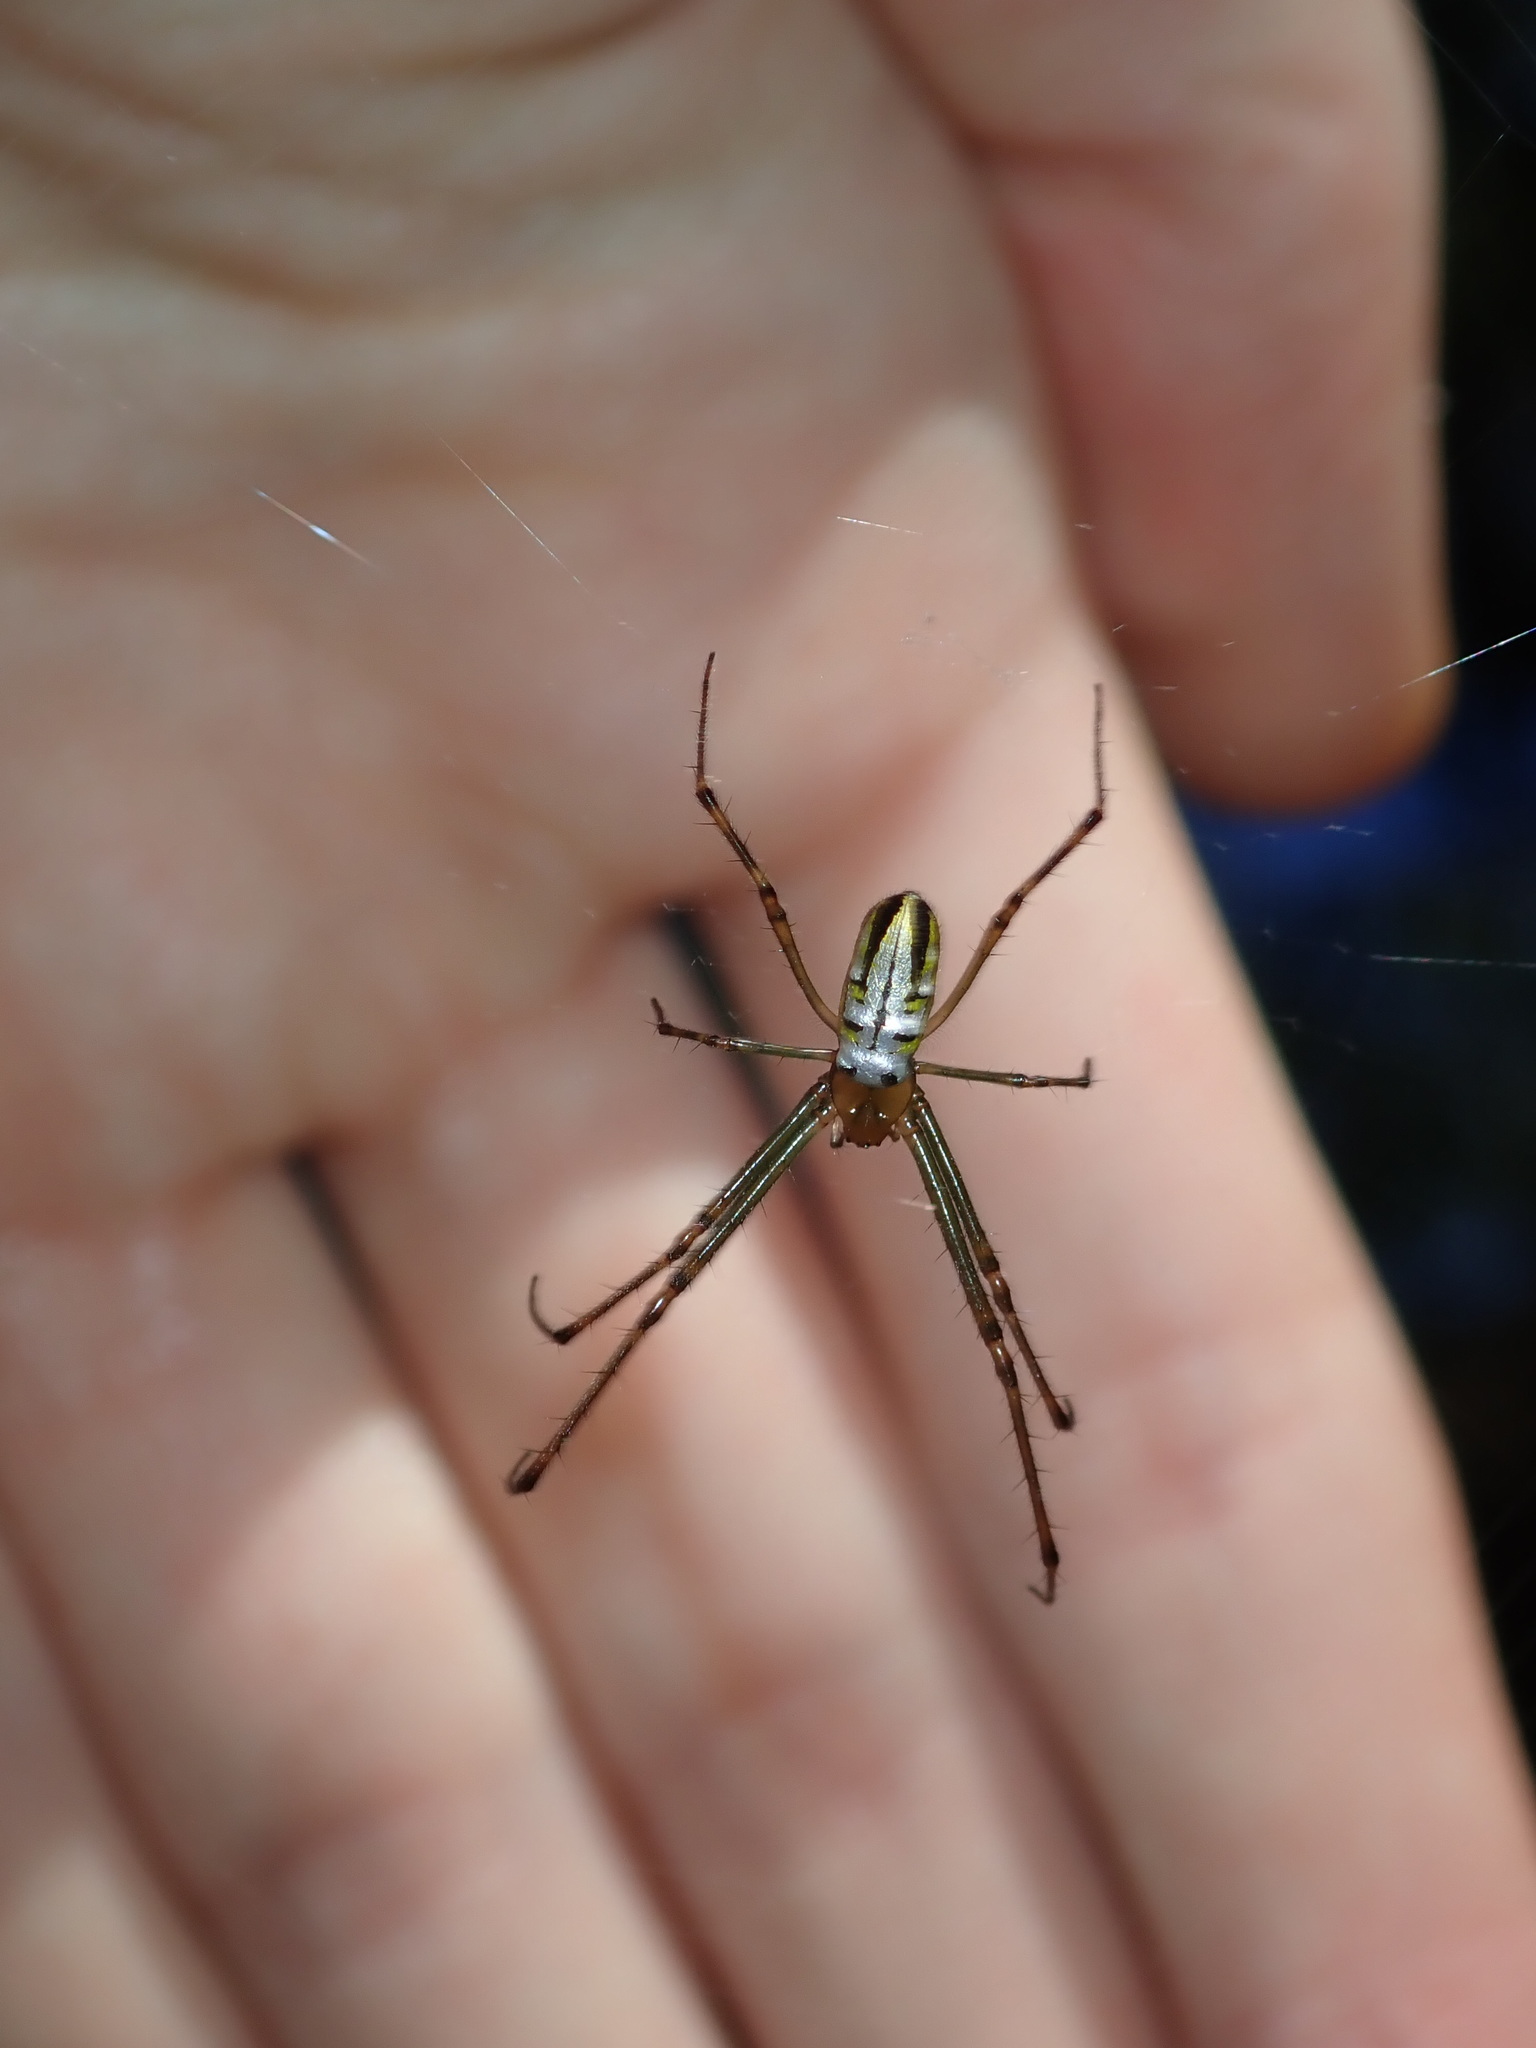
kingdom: Animalia
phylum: Arthropoda
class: Arachnida
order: Araneae
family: Tetragnathidae
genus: Leucauge
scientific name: Leucauge dromedaria
